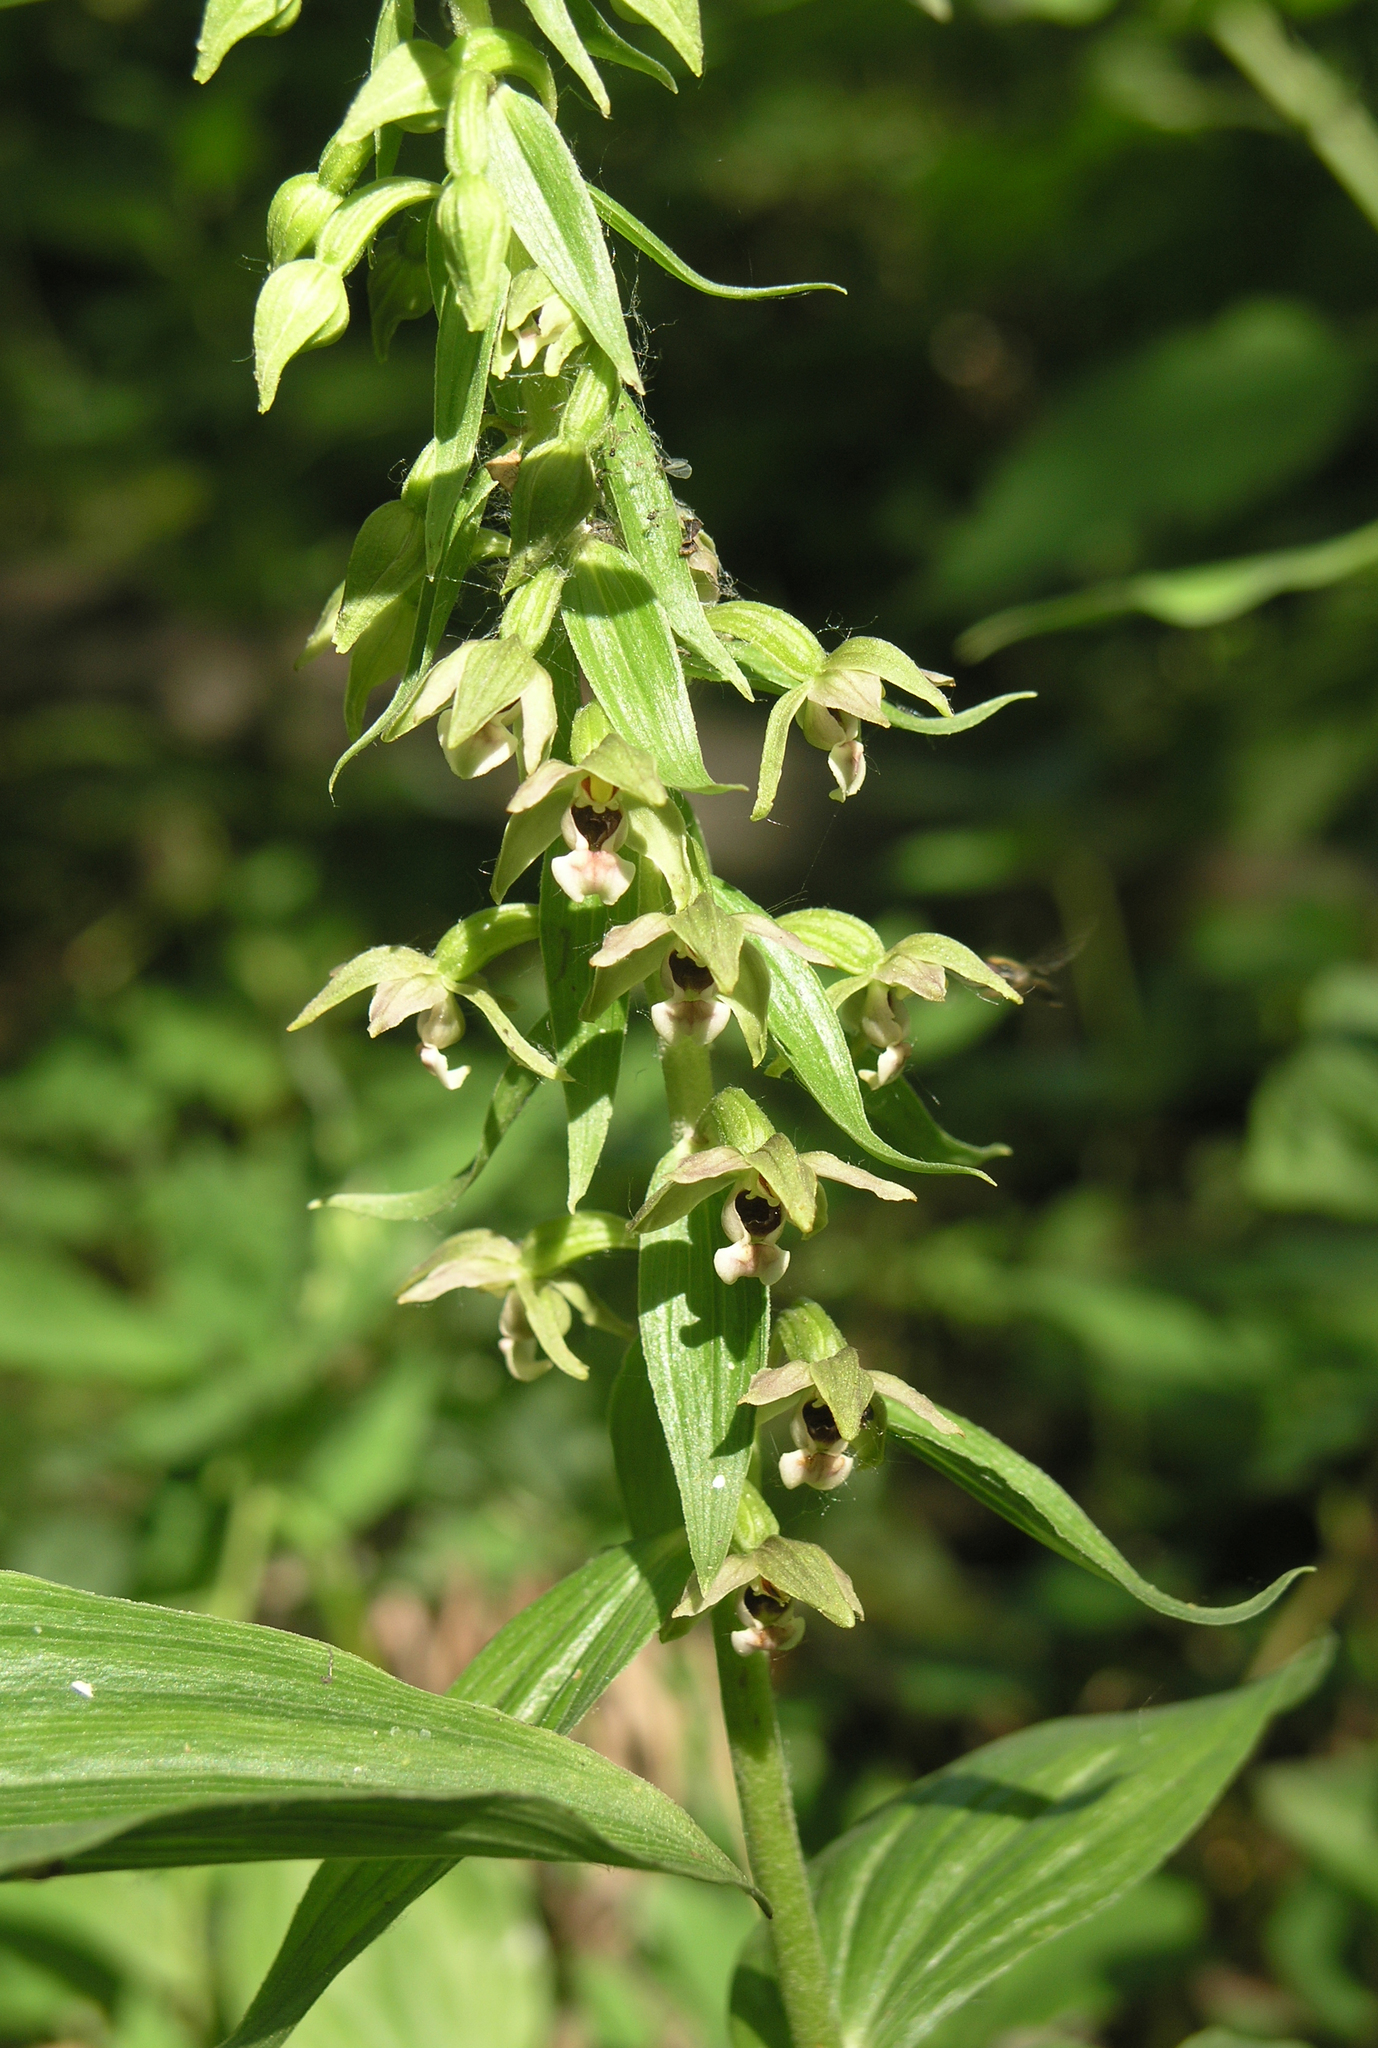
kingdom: Plantae
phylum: Tracheophyta
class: Liliopsida
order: Asparagales
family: Orchidaceae
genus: Epipactis
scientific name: Epipactis helleborine
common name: Broad-leaved helleborine
